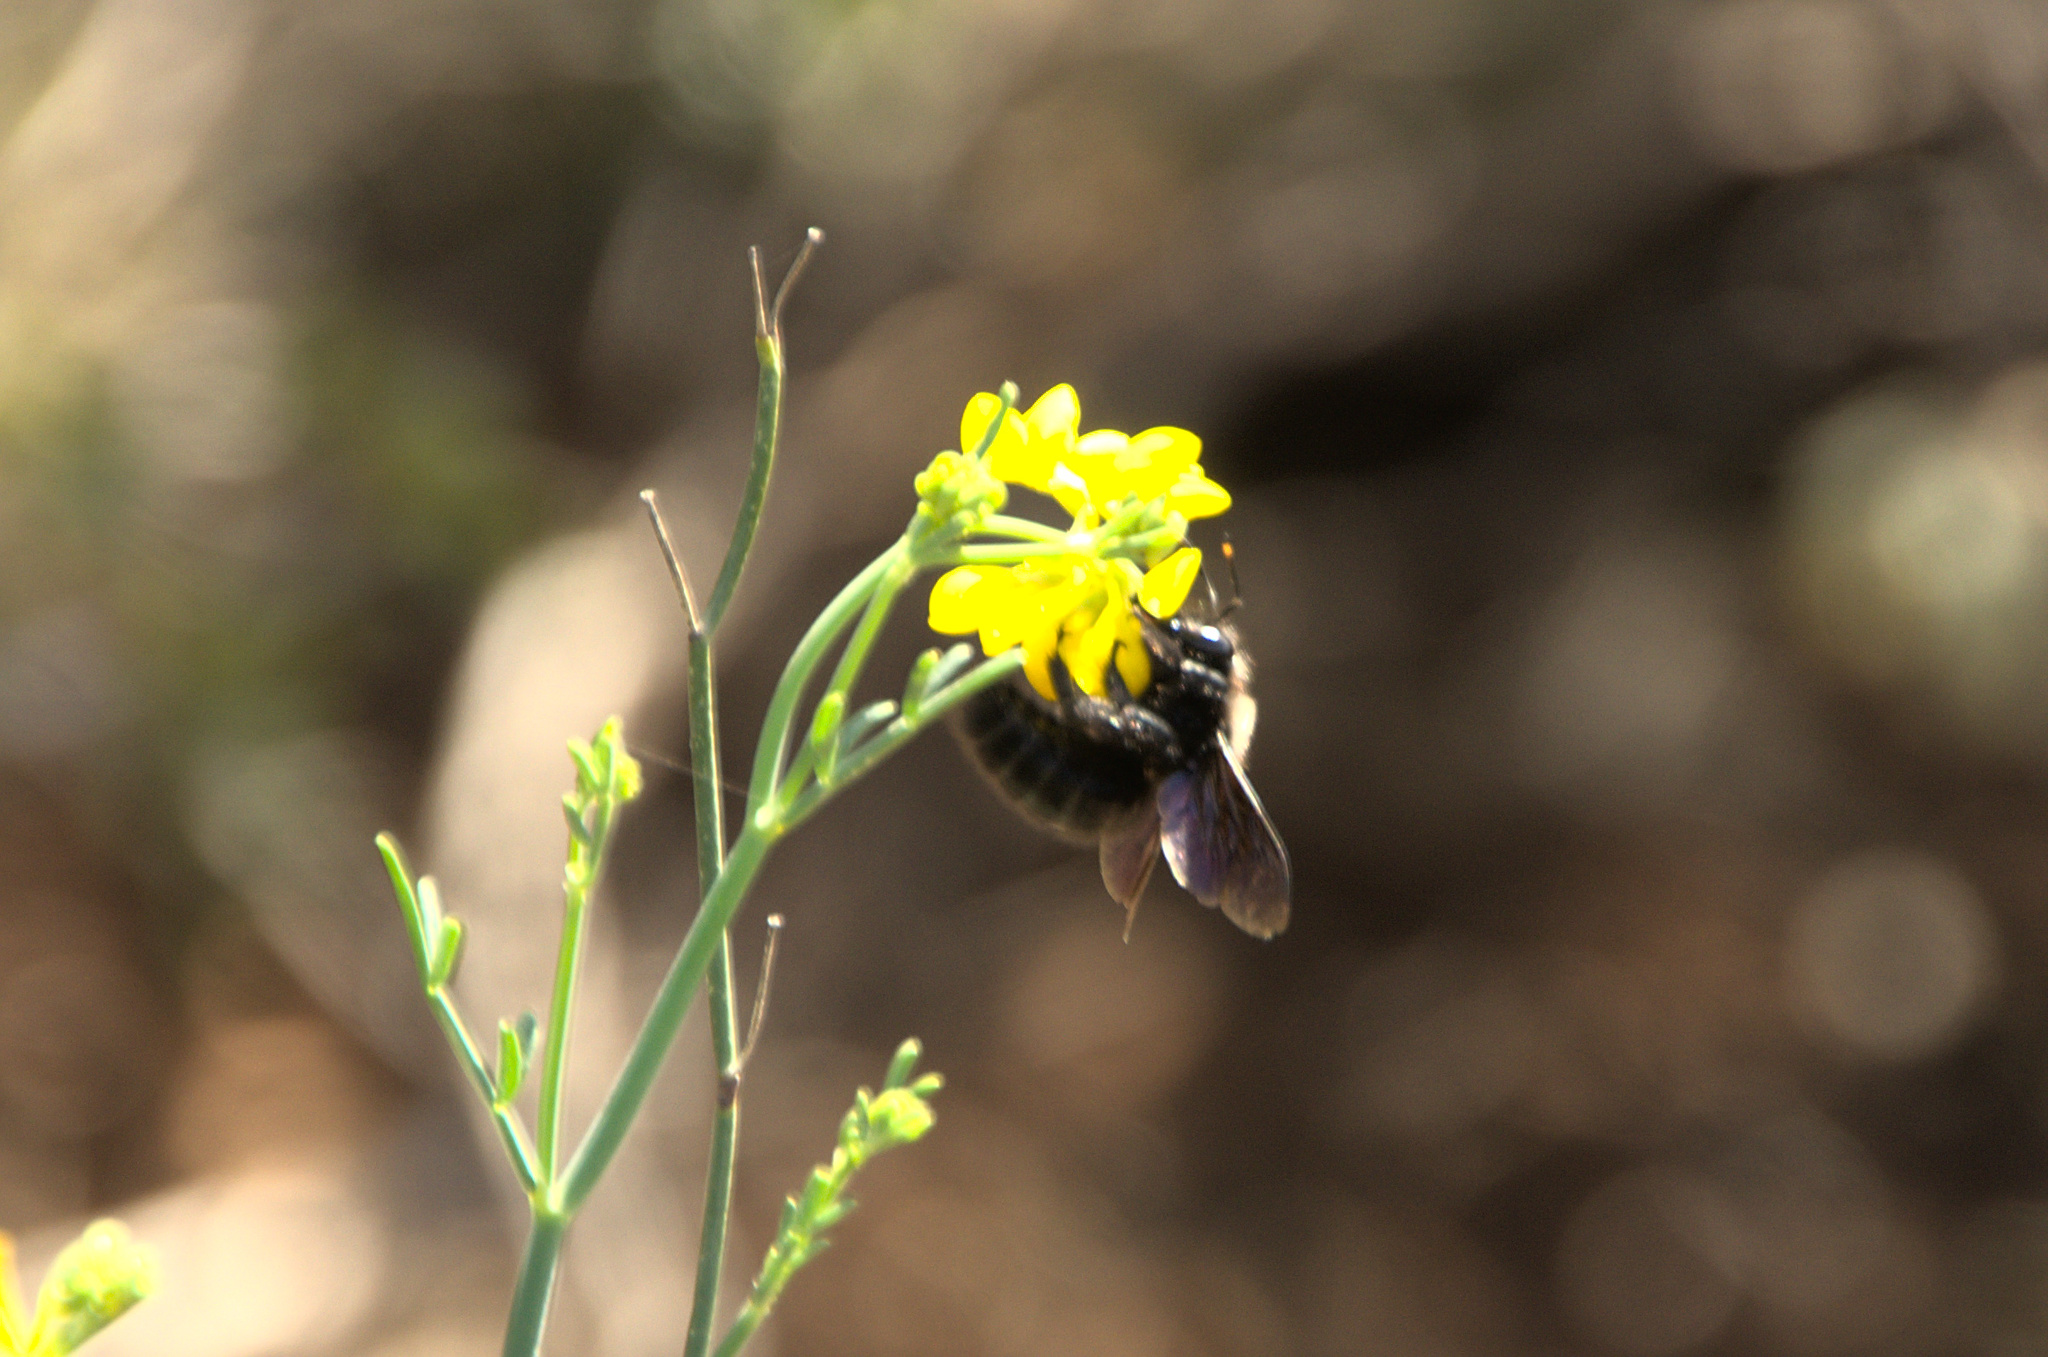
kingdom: Animalia
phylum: Arthropoda
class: Insecta
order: Hymenoptera
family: Apidae
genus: Xylocopa
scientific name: Xylocopa violacea
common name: Violet carpenter bee
